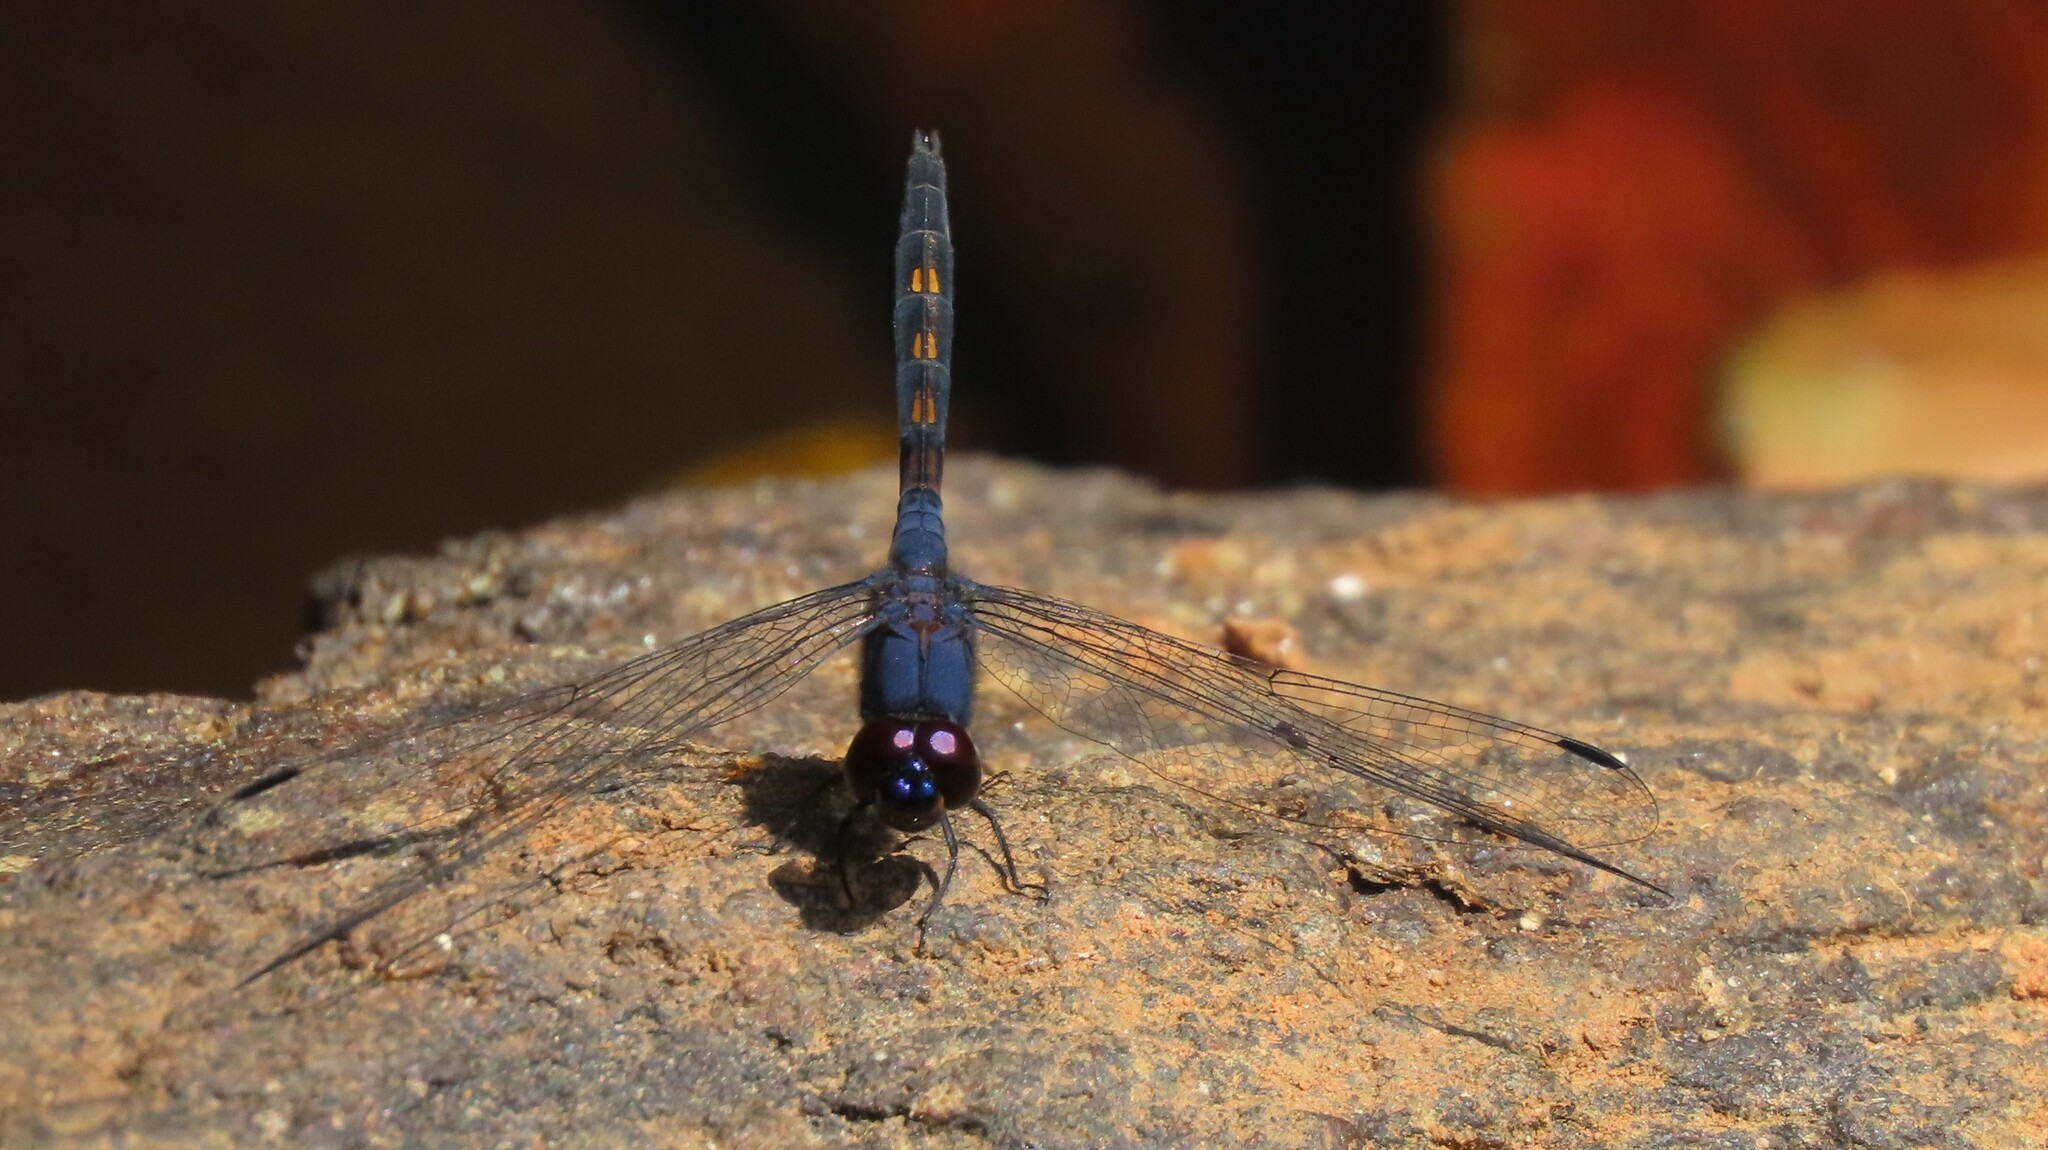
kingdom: Animalia
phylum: Arthropoda
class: Insecta
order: Odonata
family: Libellulidae
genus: Trithemis
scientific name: Trithemis festiva
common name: Indigo dropwing
